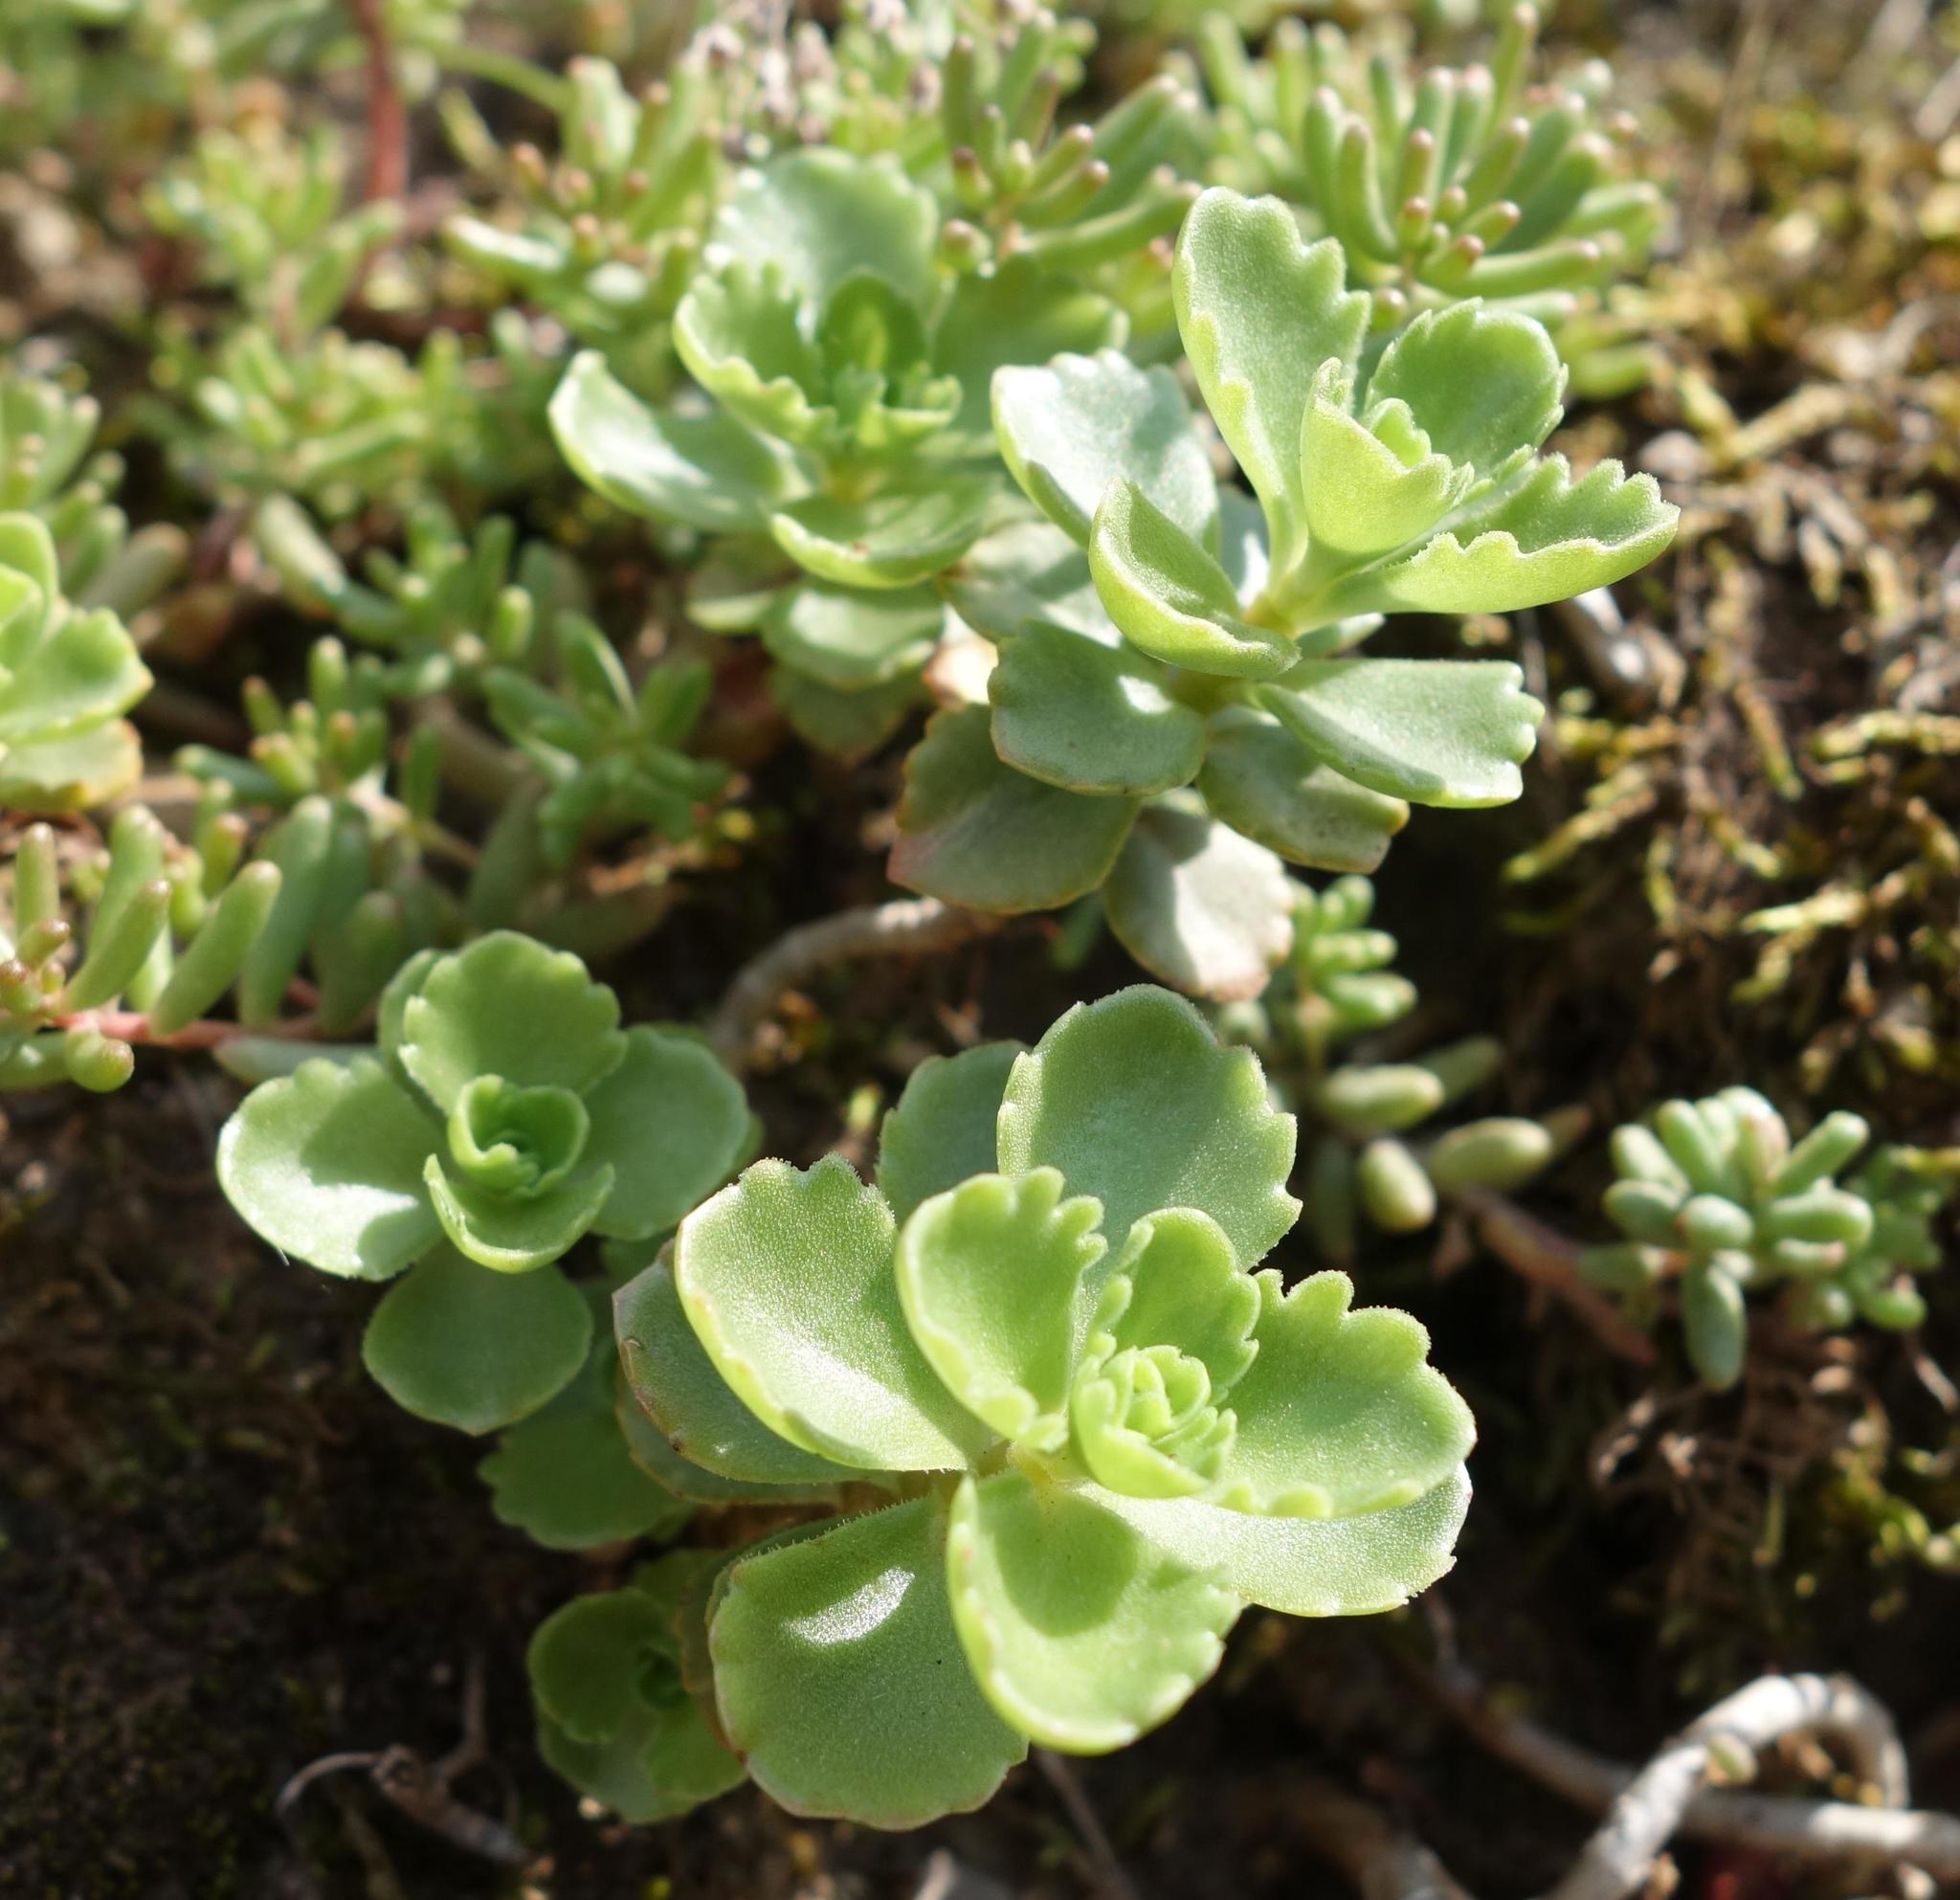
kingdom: Plantae
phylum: Tracheophyta
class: Magnoliopsida
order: Saxifragales
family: Crassulaceae
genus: Phedimus
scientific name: Phedimus spurius
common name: Caucasian stonecrop
